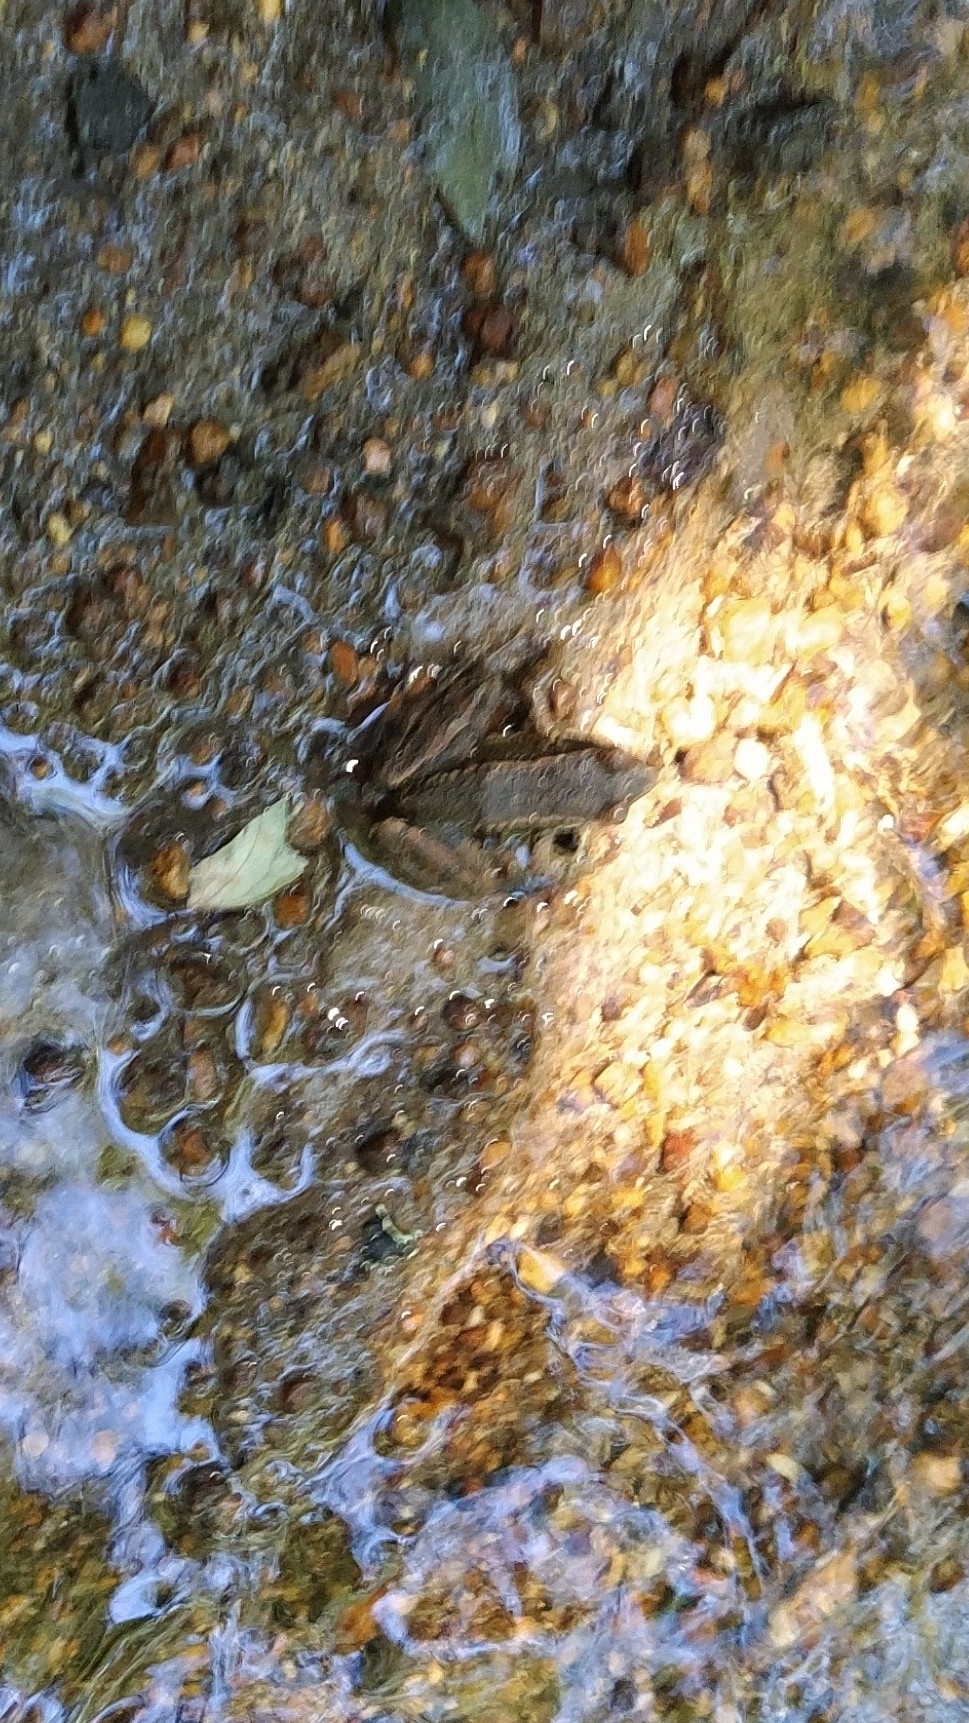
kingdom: Animalia
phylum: Chordata
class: Amphibia
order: Anura
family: Ranidae
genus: Rana
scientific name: Rana iberica
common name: Iberian frog
